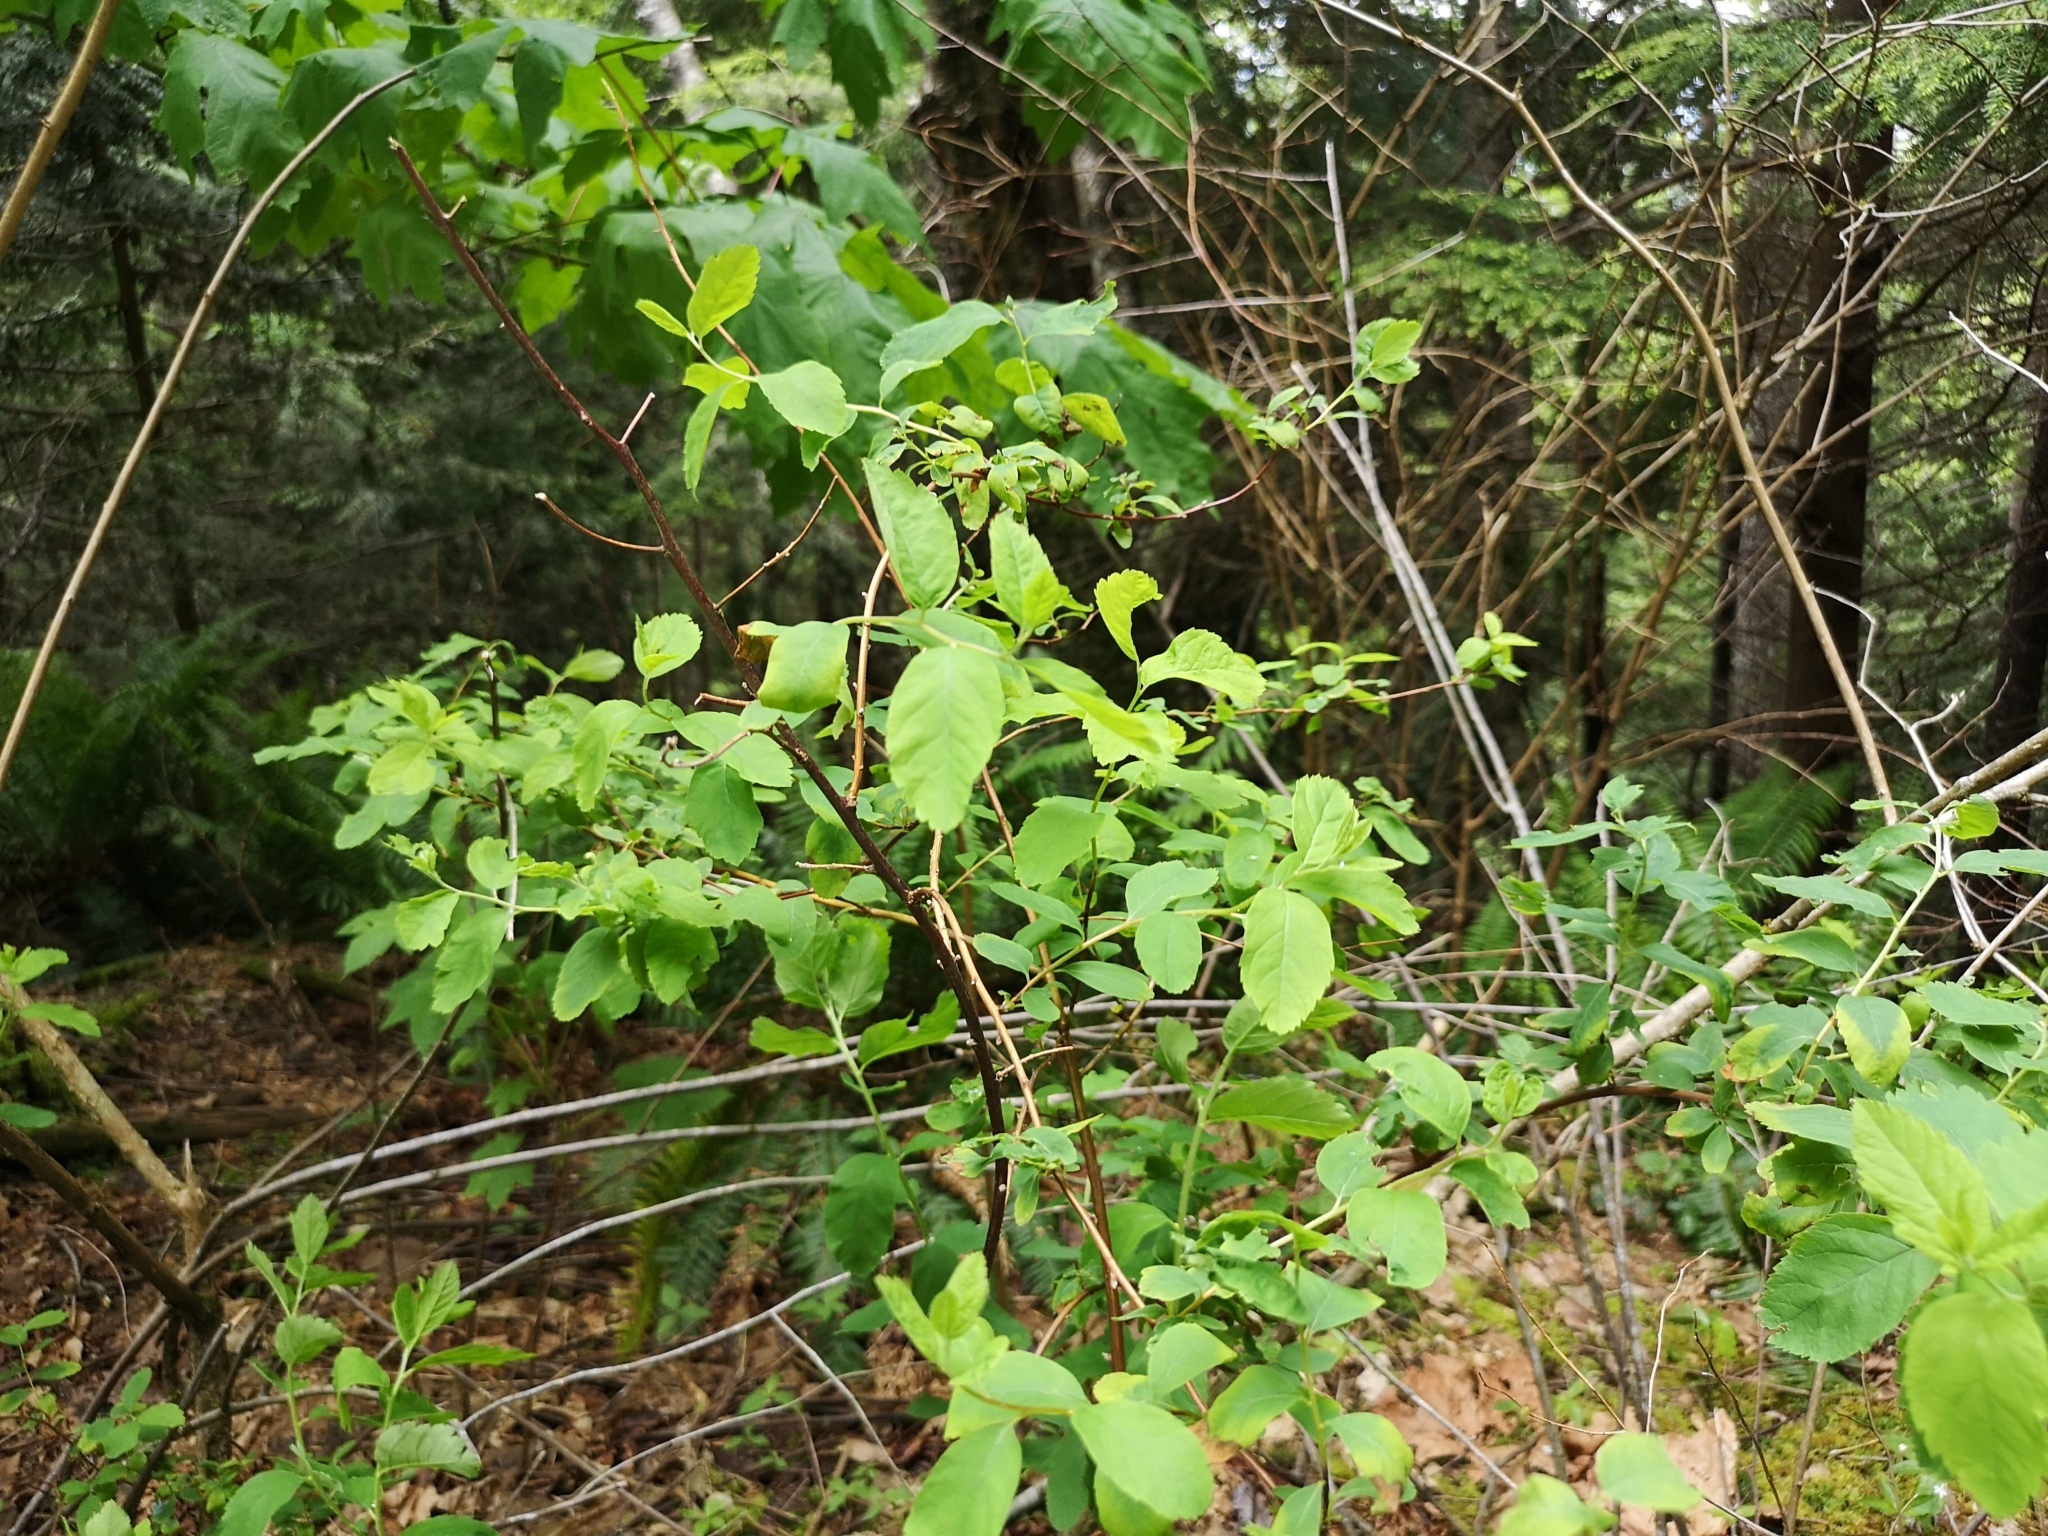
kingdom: Plantae
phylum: Tracheophyta
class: Magnoliopsida
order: Rosales
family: Rosaceae
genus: Spiraea
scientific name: Spiraea douglasii
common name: Steeplebush
